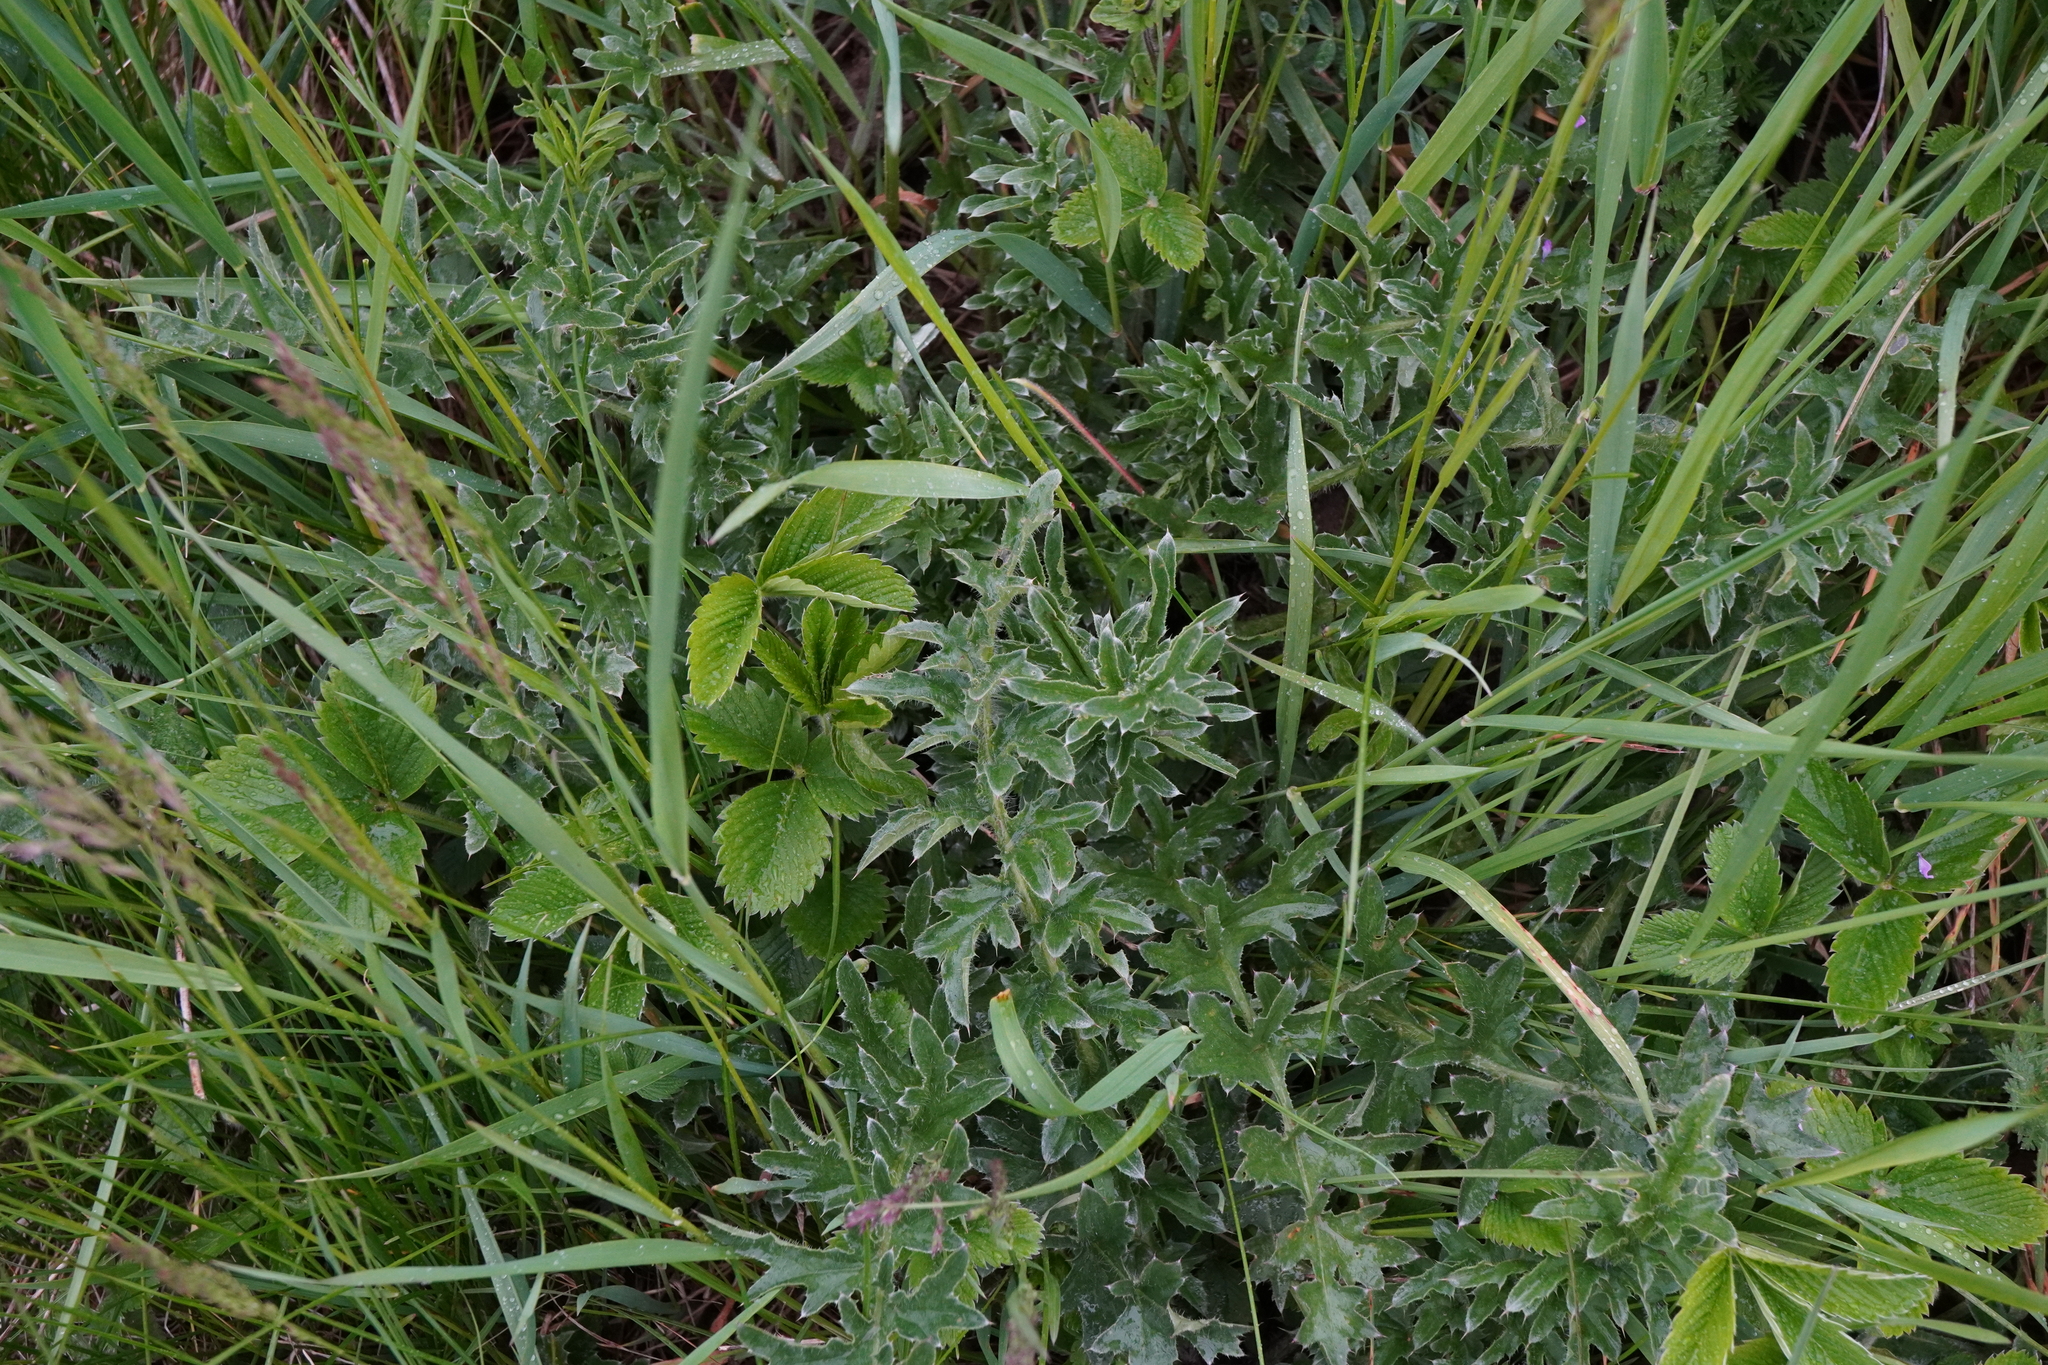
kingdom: Plantae
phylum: Tracheophyta
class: Magnoliopsida
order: Asterales
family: Asteraceae
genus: Carduus
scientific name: Carduus acanthoides
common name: Plumeless thistle
